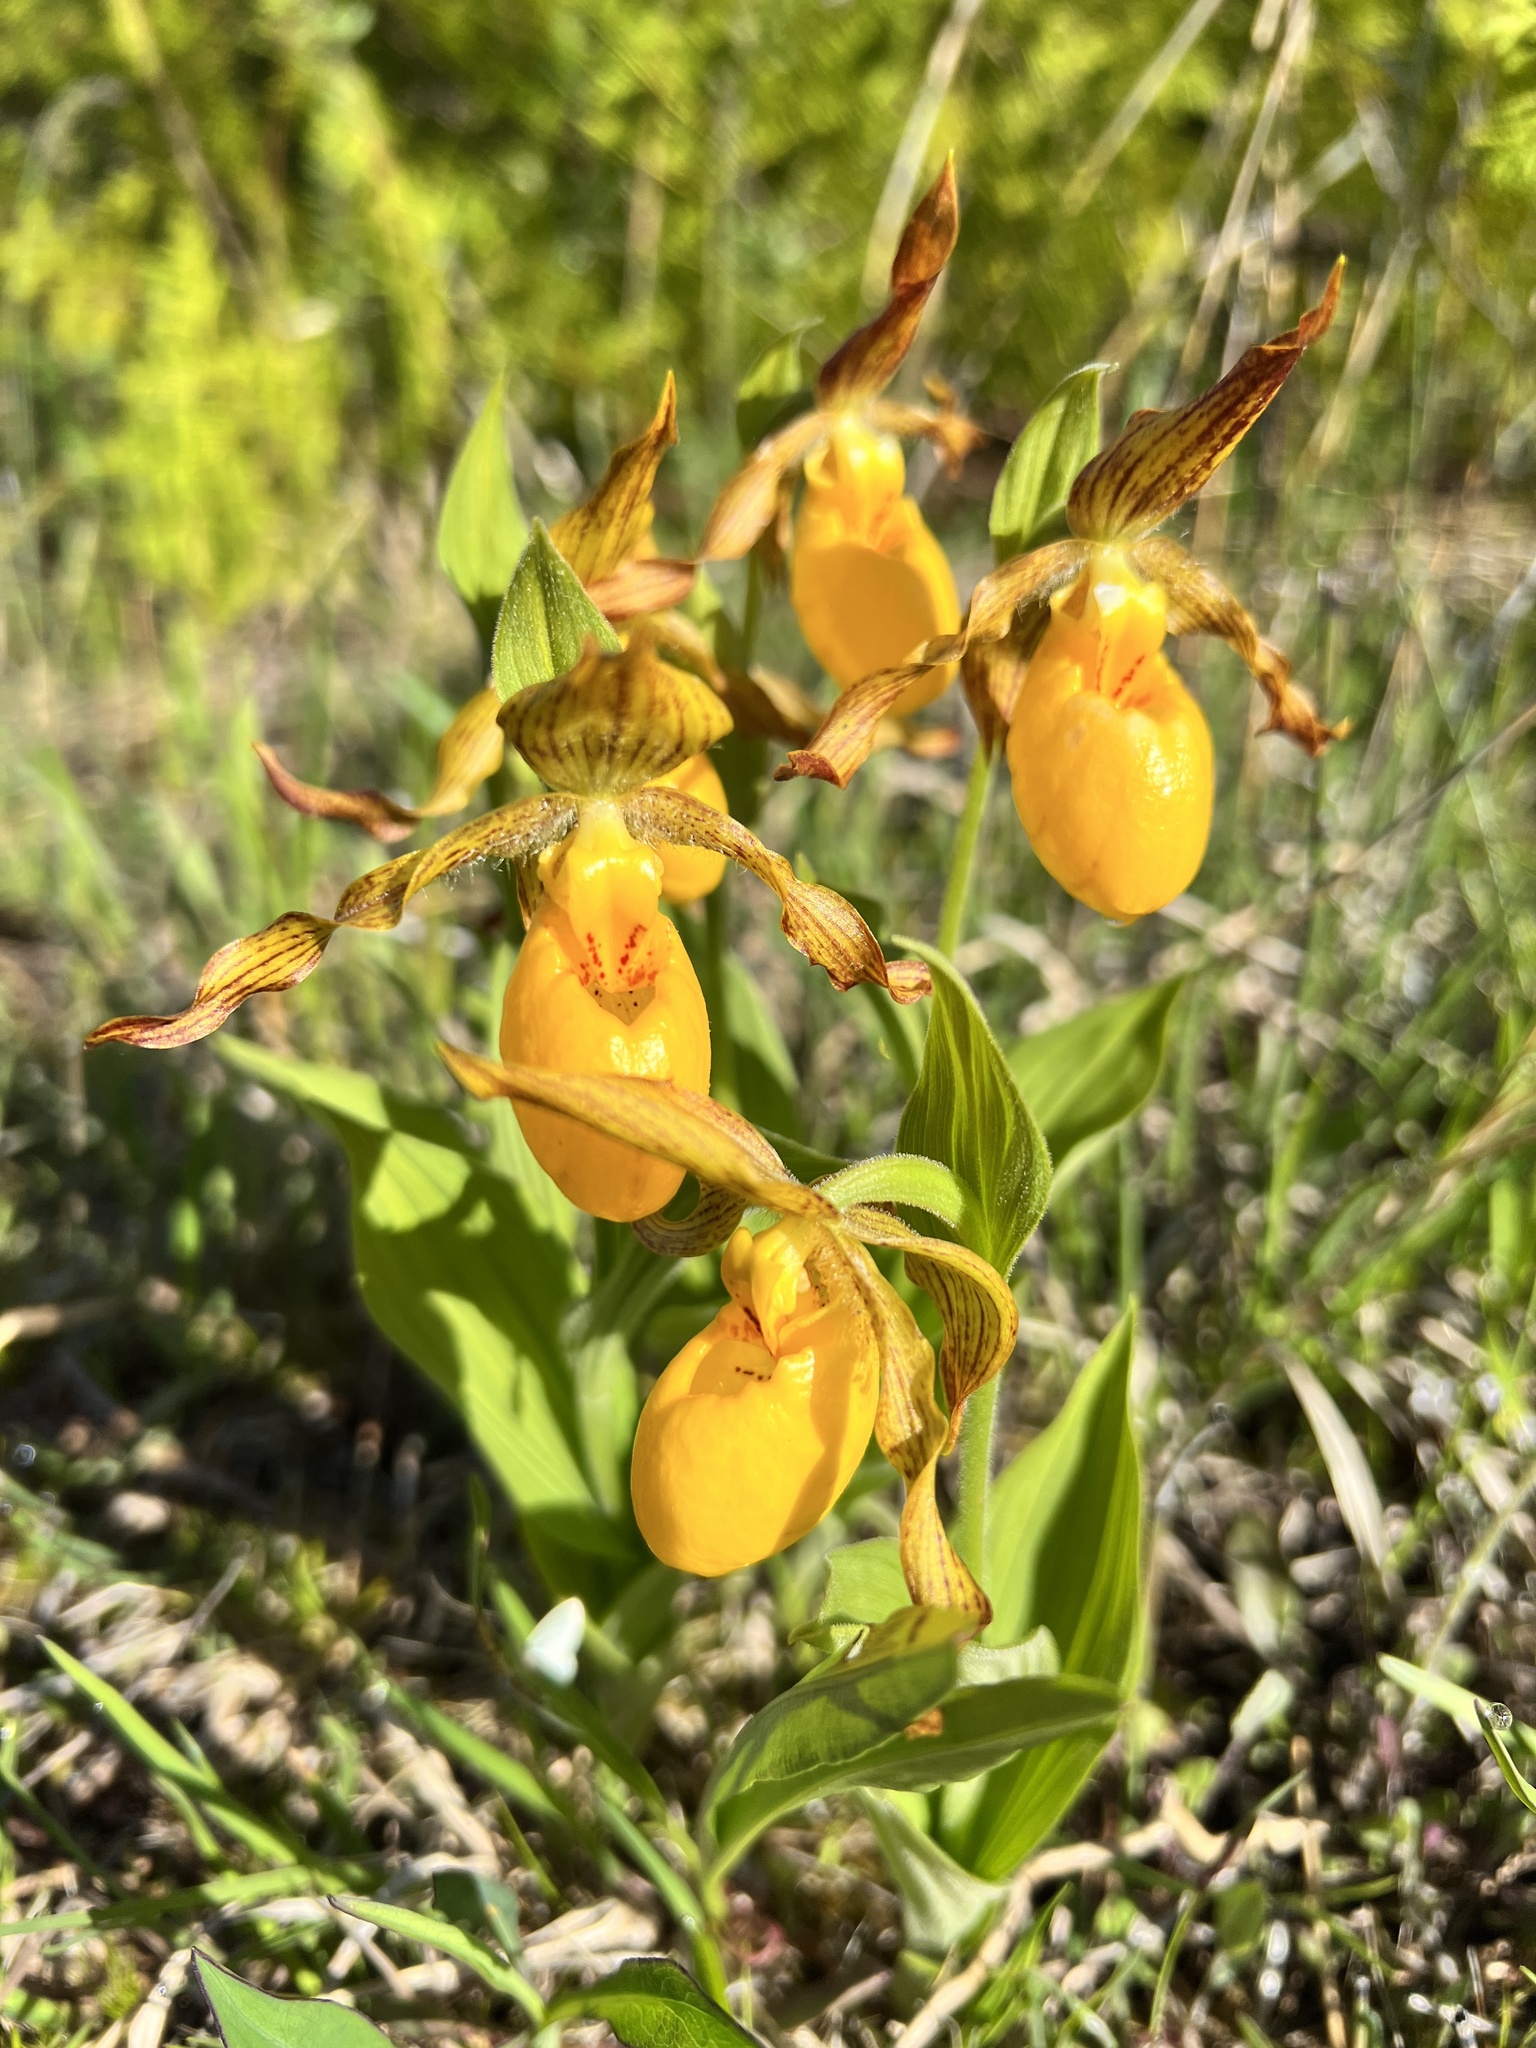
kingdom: Plantae
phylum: Tracheophyta
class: Liliopsida
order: Asparagales
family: Orchidaceae
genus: Cypripedium
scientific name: Cypripedium parviflorum
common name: American yellow lady's-slipper
